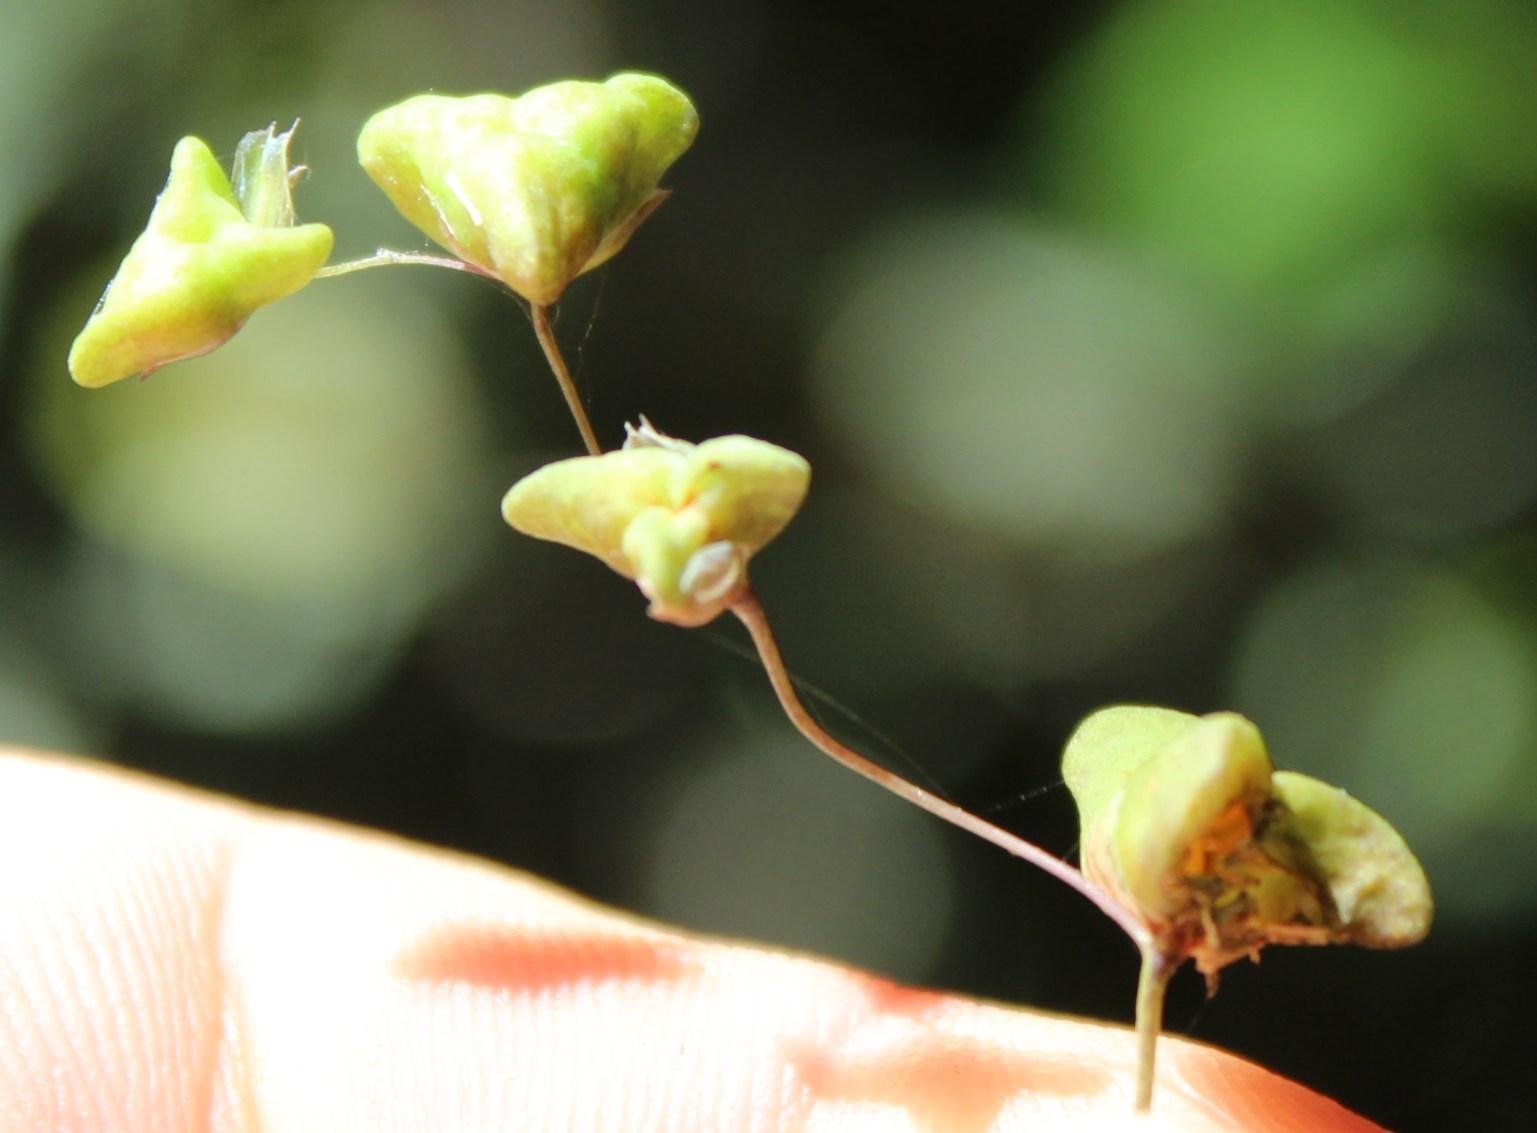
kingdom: Plantae
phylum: Tracheophyta
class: Liliopsida
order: Asparagales
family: Iridaceae
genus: Melasphaerula
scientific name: Melasphaerula graminea
